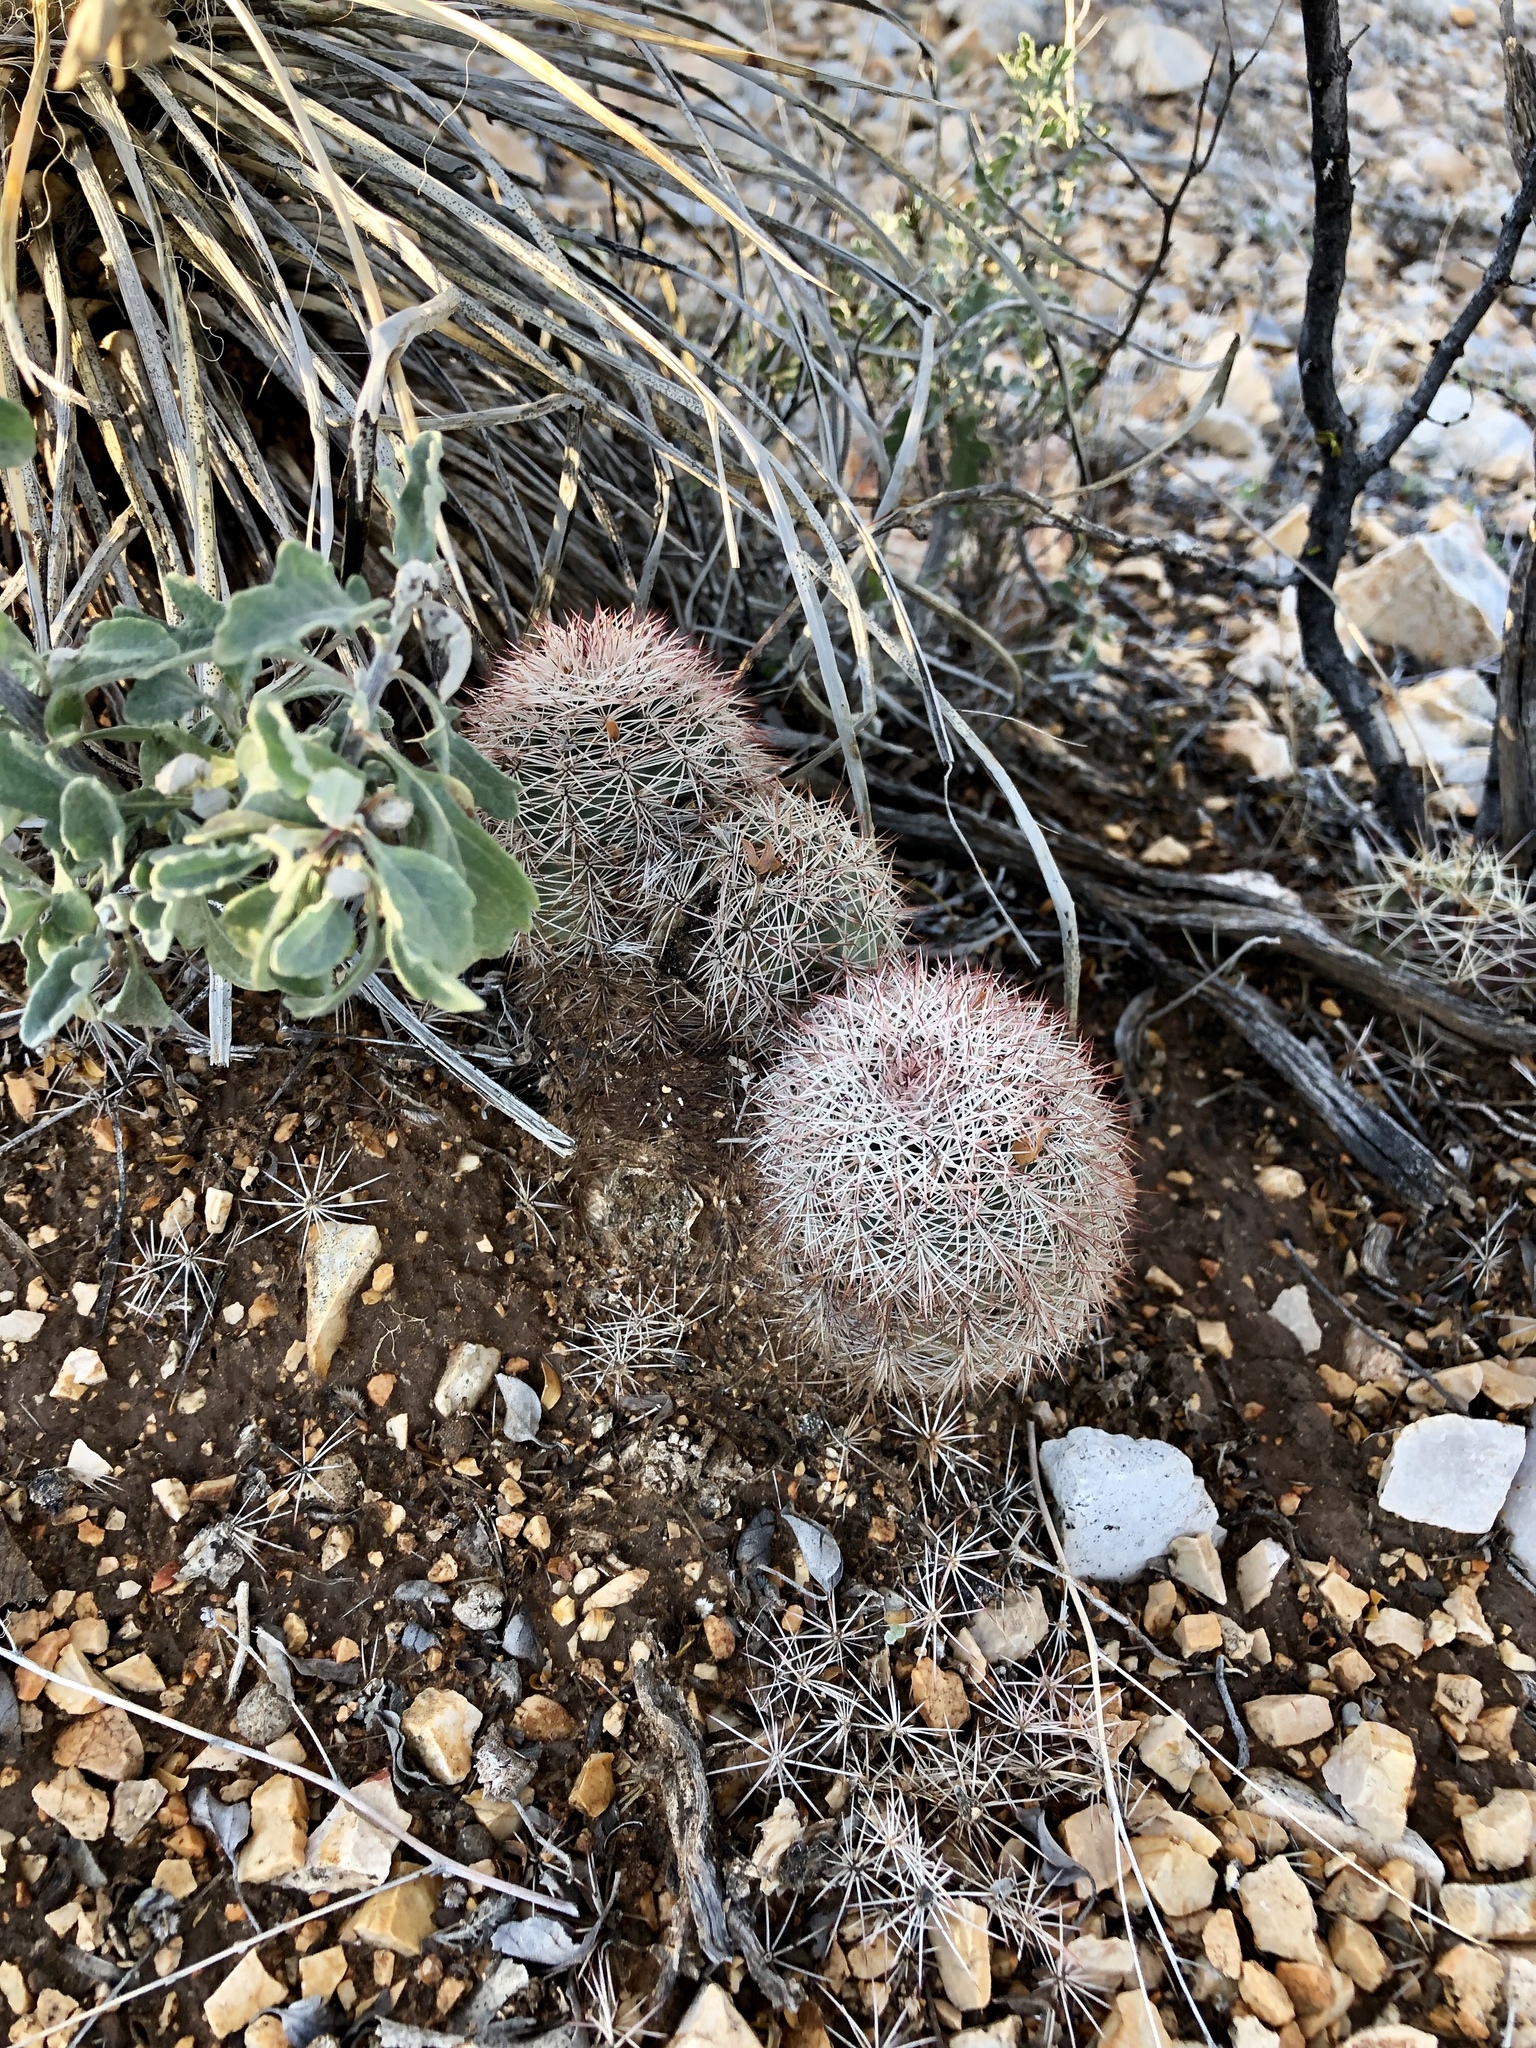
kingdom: Plantae
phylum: Tracheophyta
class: Magnoliopsida
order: Caryophyllales
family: Cactaceae
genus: Echinocereus
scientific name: Echinocereus dasyacanthus
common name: Spiny hedgehog cactus
